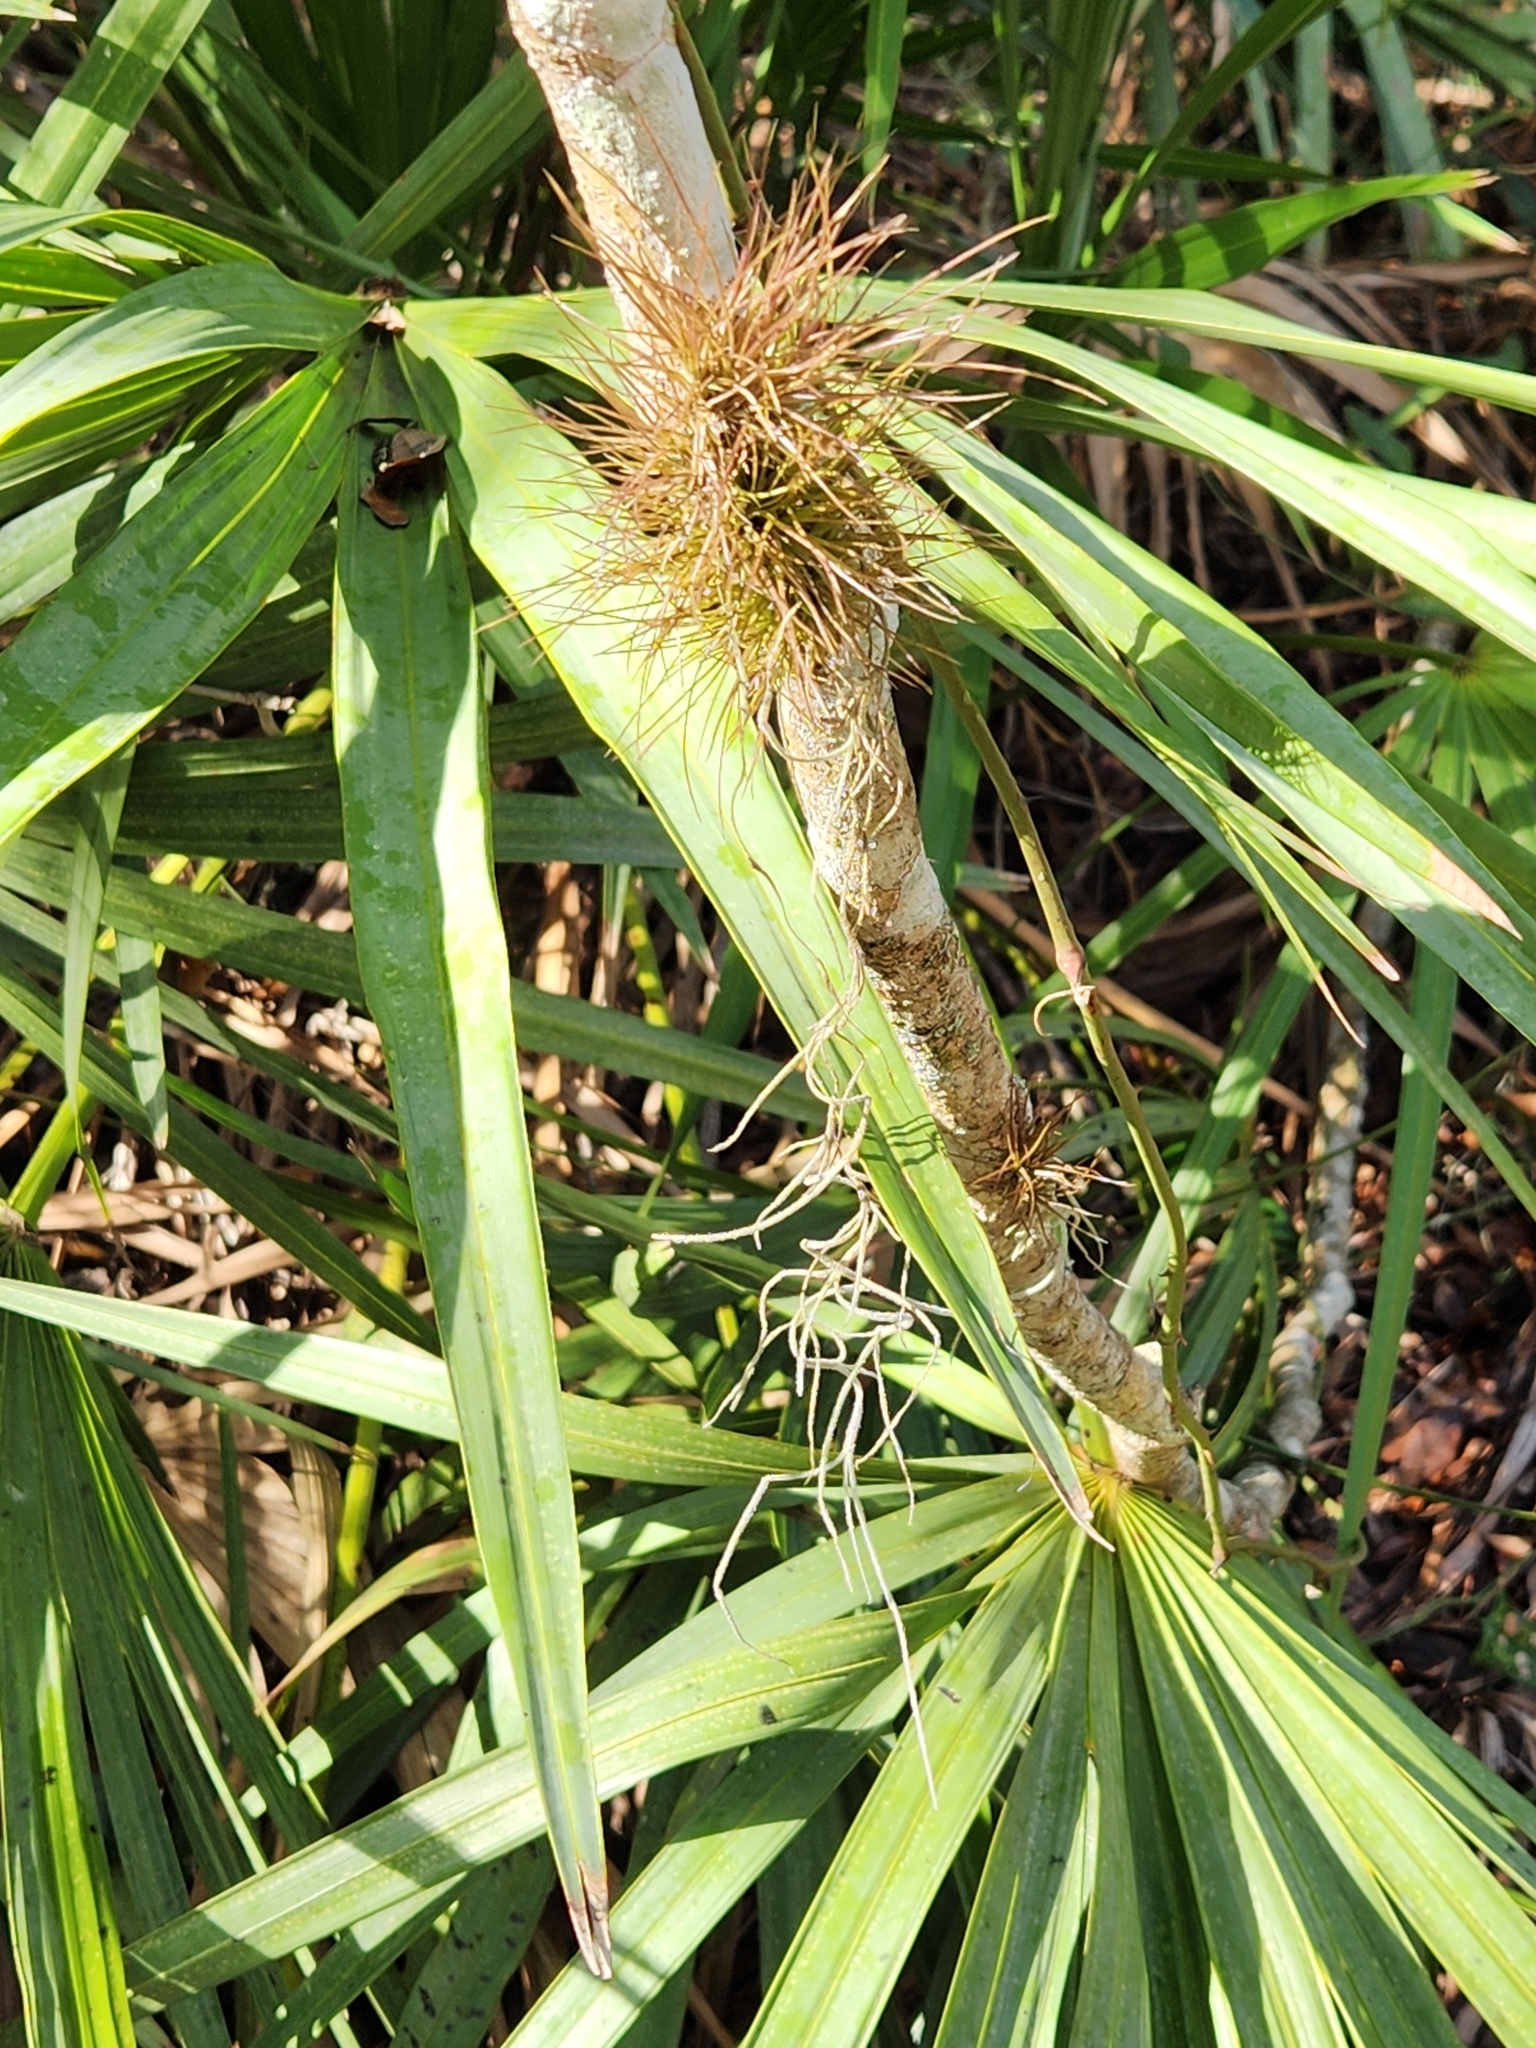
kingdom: Plantae
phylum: Tracheophyta
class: Liliopsida
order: Poales
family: Bromeliaceae
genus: Tillandsia
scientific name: Tillandsia setacea
